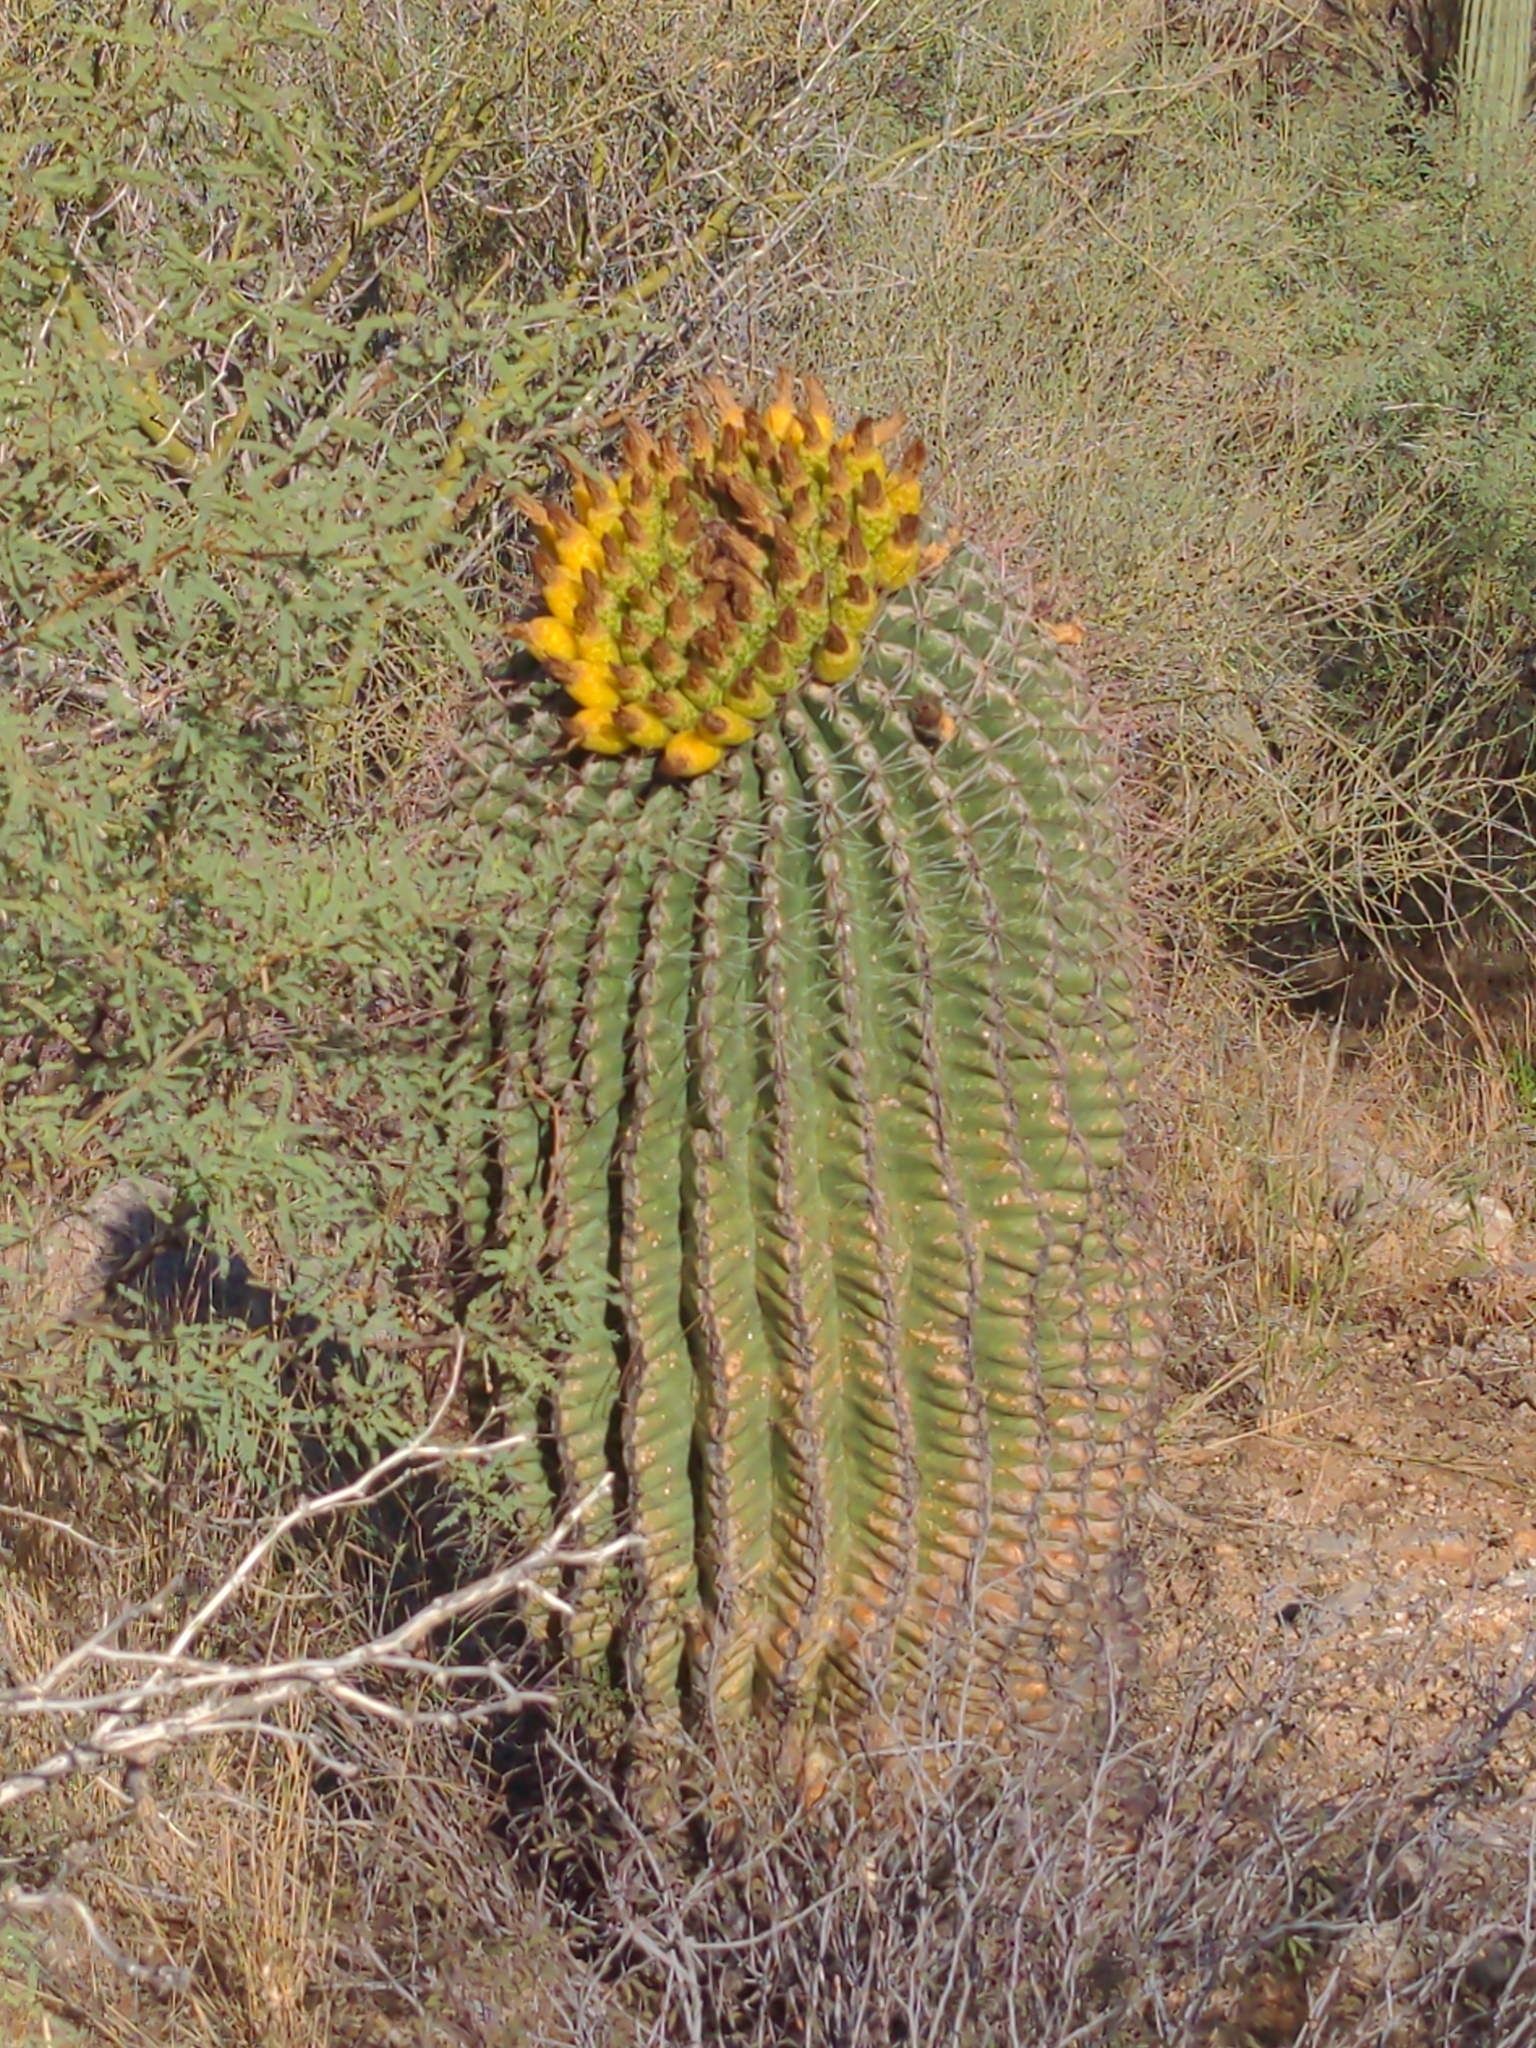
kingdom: Plantae
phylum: Tracheophyta
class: Magnoliopsida
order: Caryophyllales
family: Cactaceae
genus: Ferocactus
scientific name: Ferocactus wislizeni
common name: Candy barrel cactus
